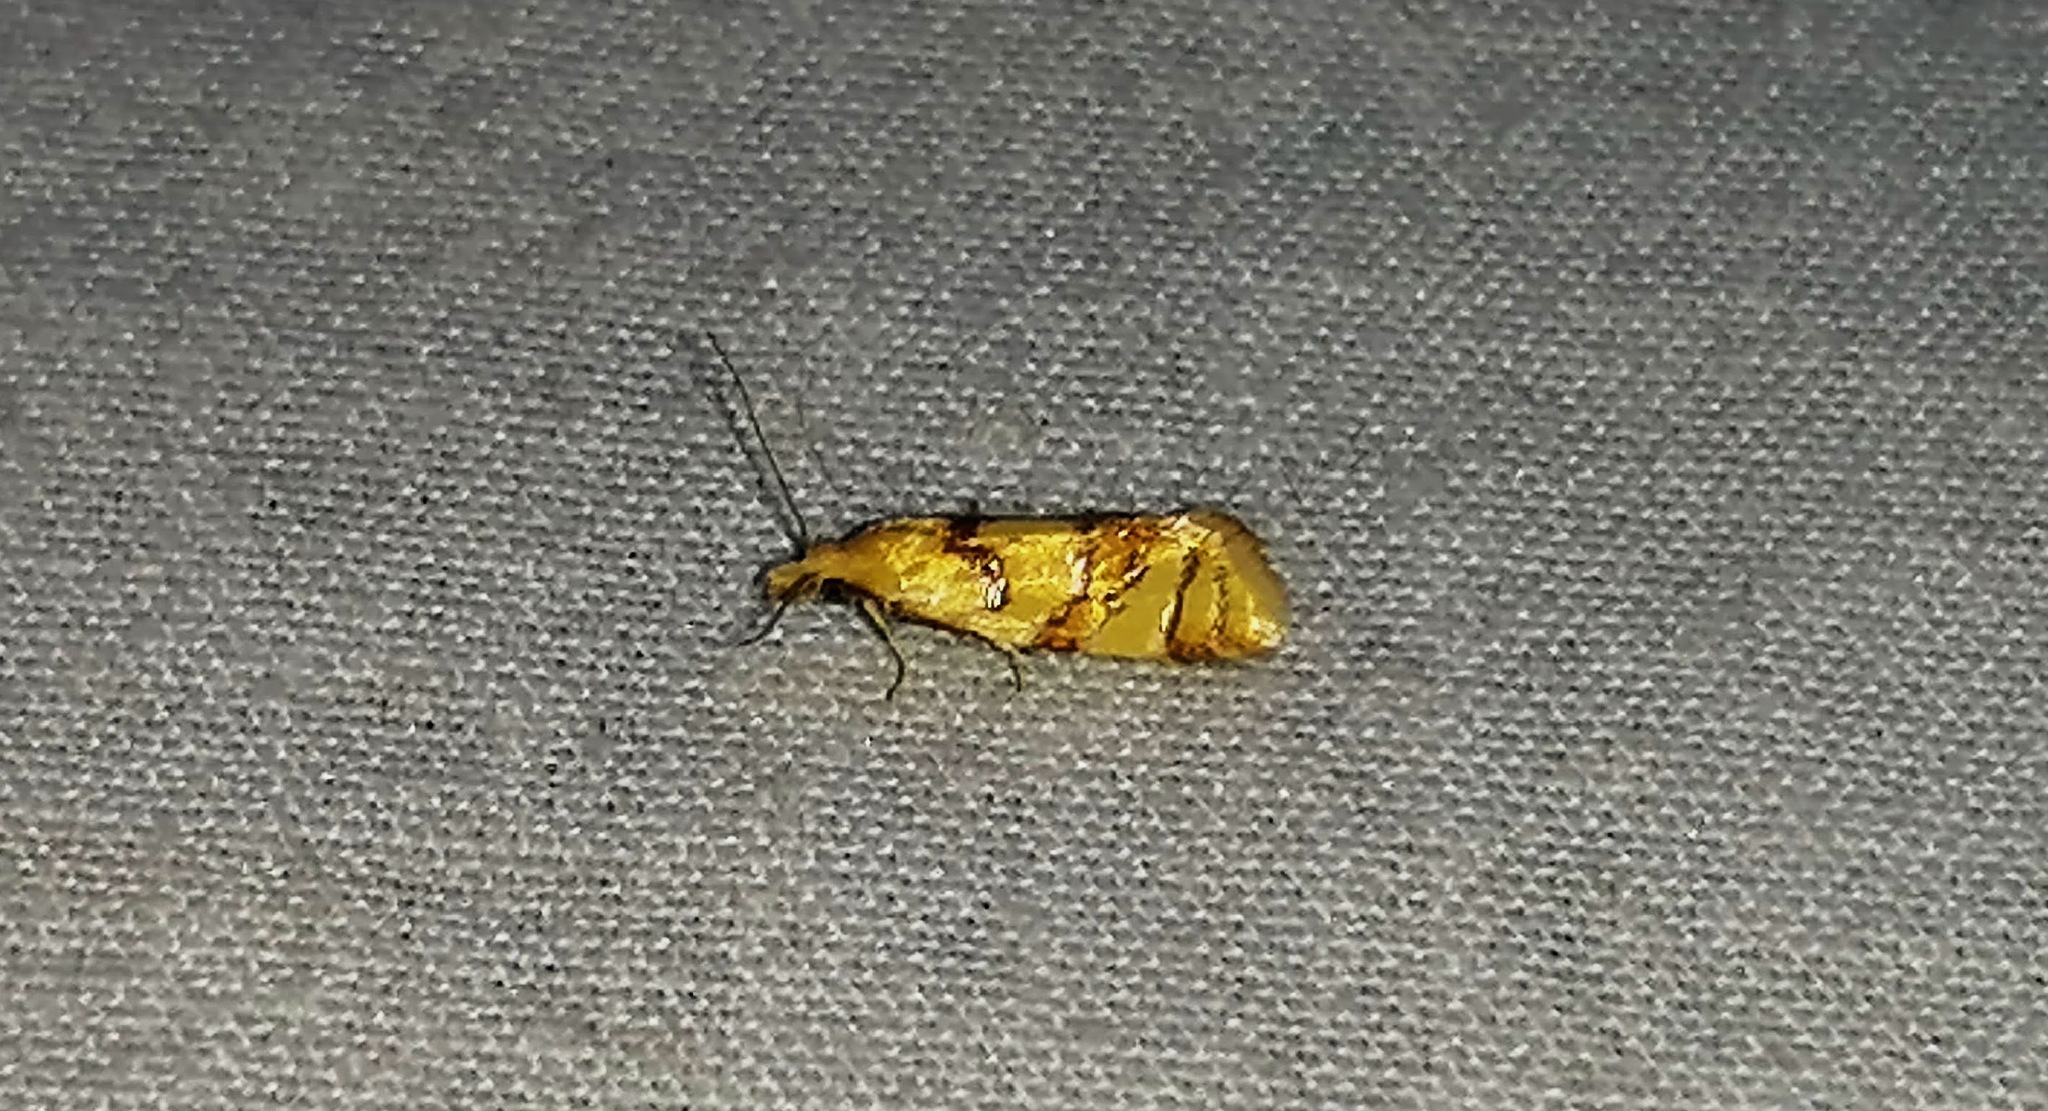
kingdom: Animalia
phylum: Arthropoda
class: Insecta
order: Lepidoptera
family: Tortricidae
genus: Phtheochroa
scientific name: Phtheochroa vitellinana
